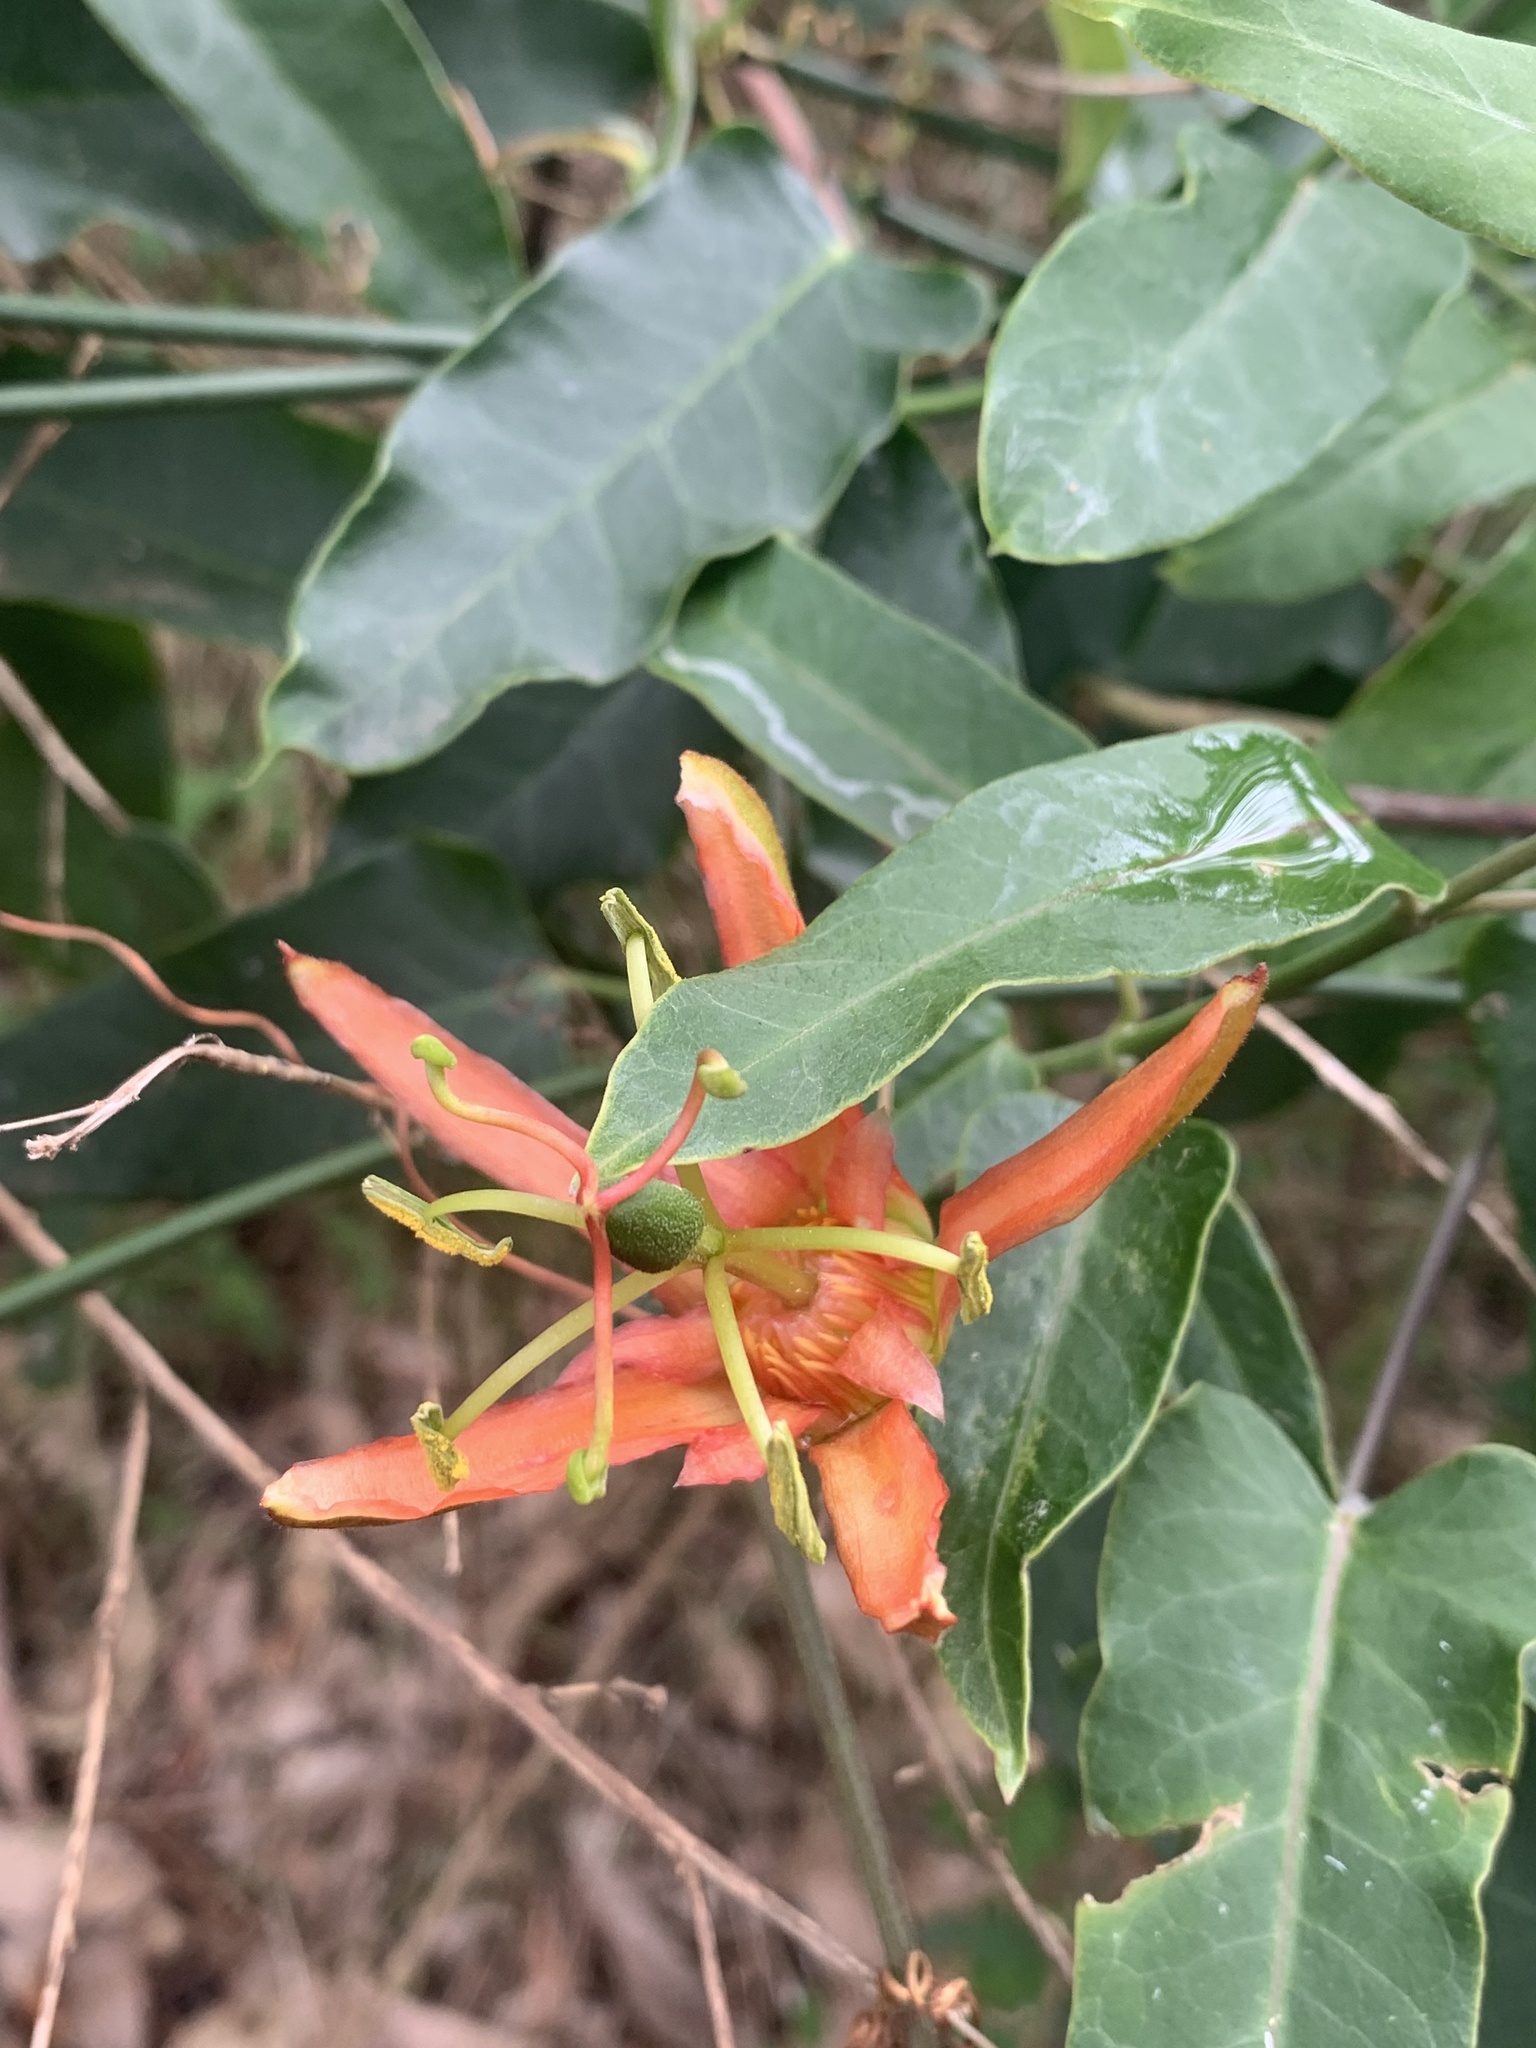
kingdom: Plantae
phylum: Tracheophyta
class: Magnoliopsida
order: Malpighiales
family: Passifloraceae
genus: Passiflora
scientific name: Passiflora herbertiana
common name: Yellow passionflower
